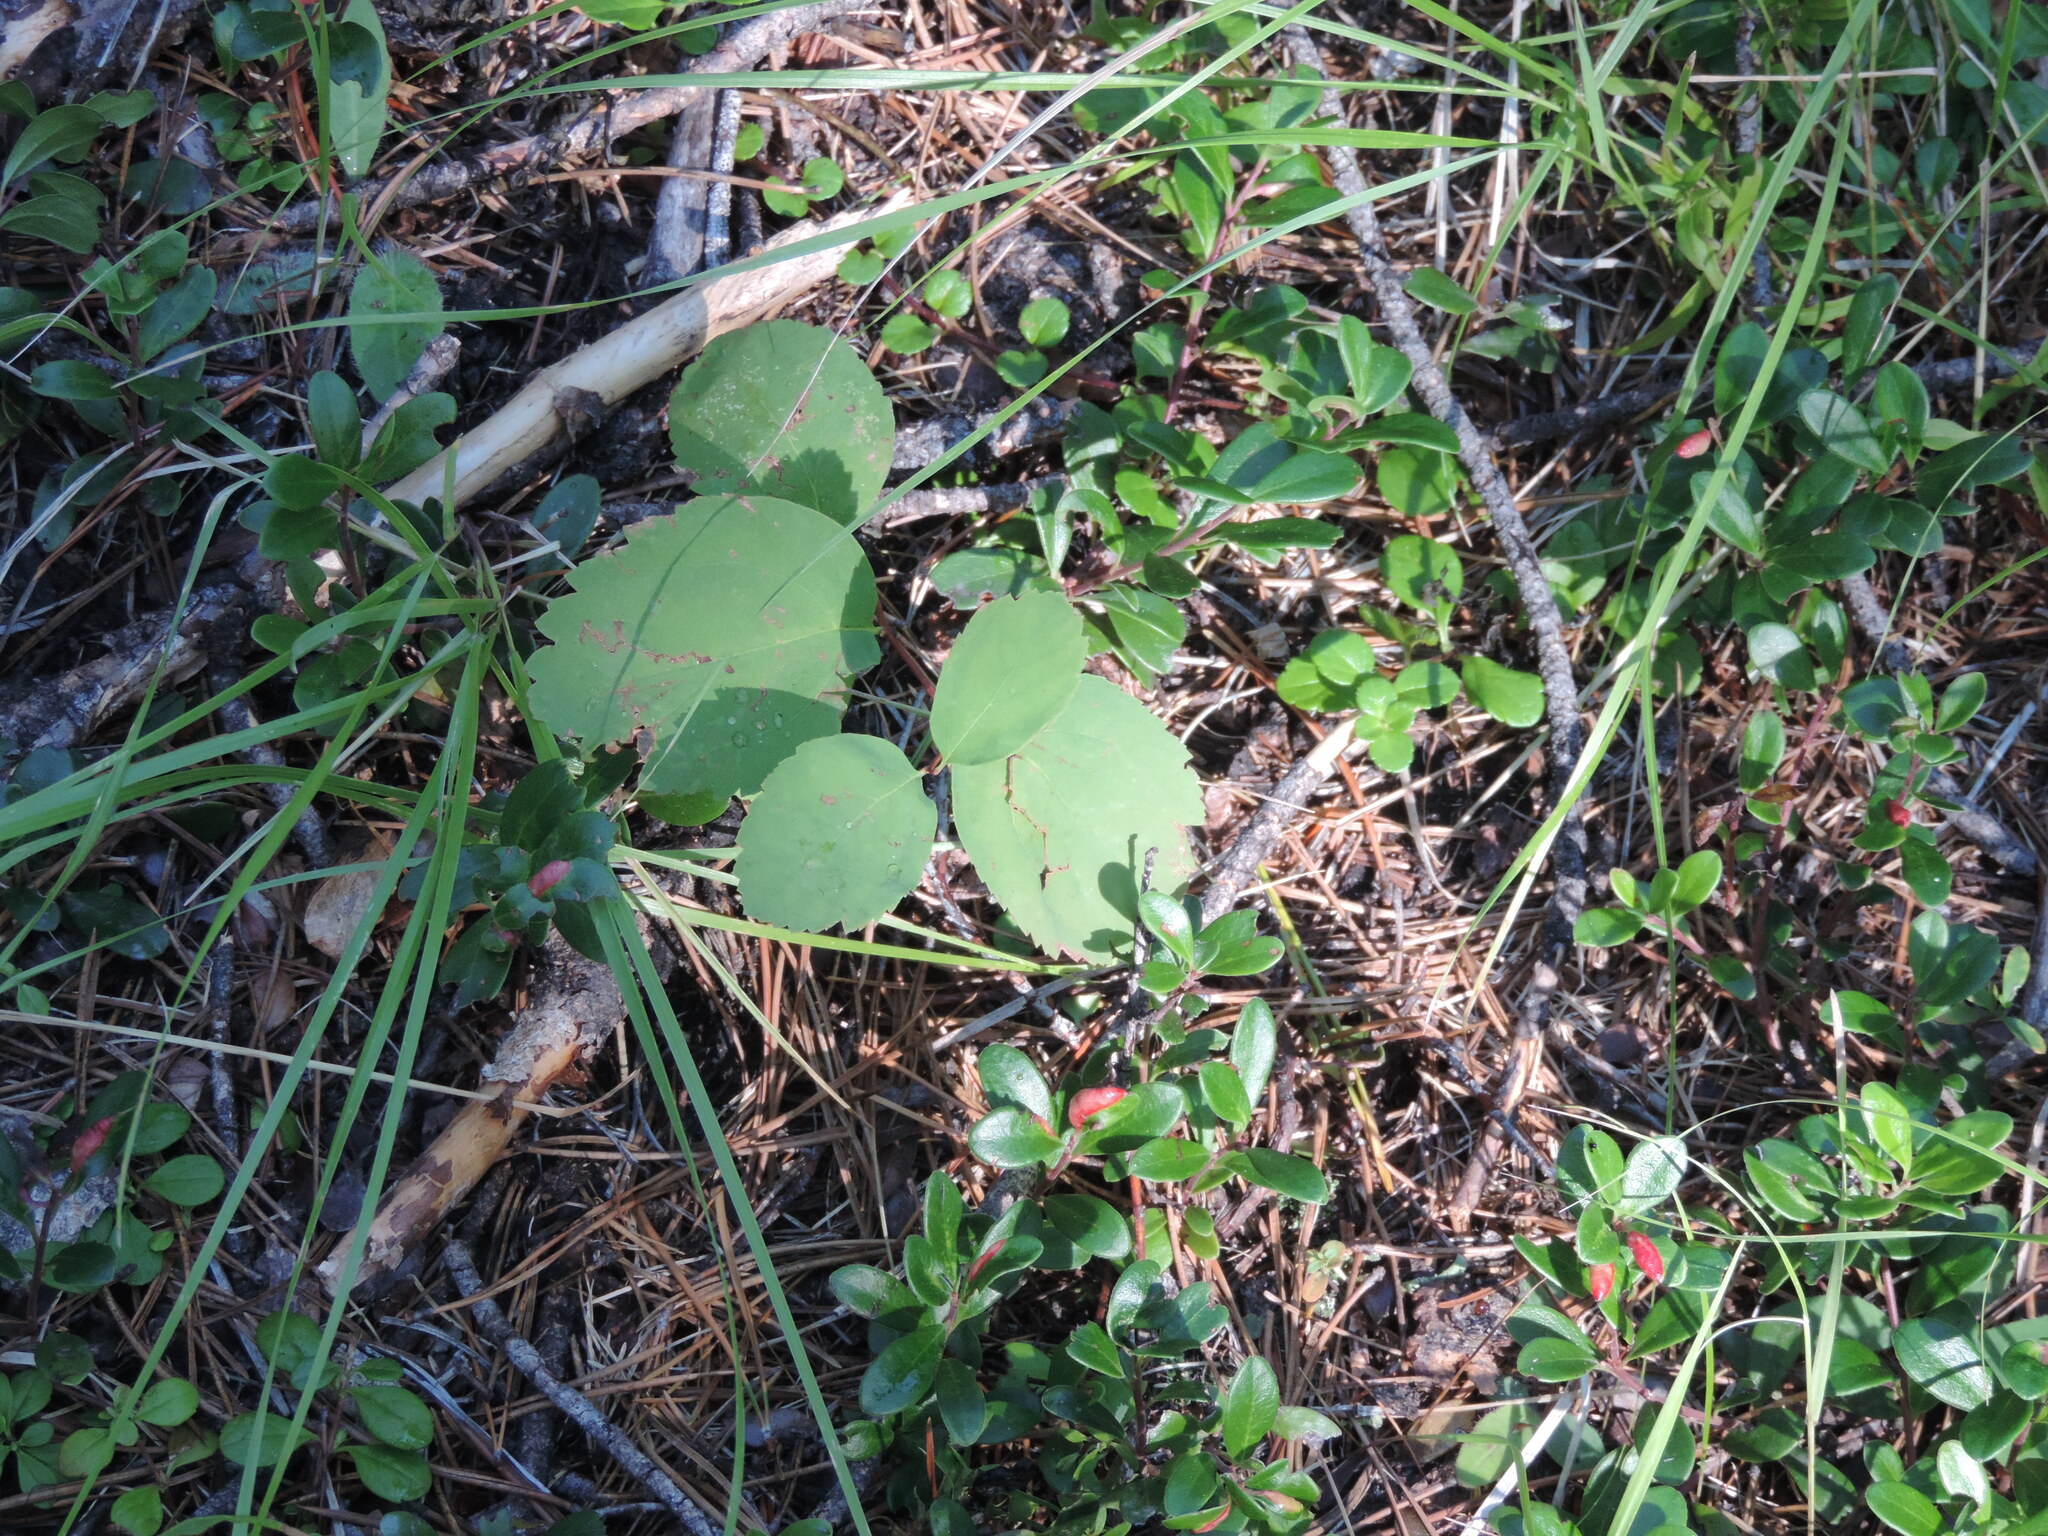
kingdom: Plantae
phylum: Tracheophyta
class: Magnoliopsida
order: Rosales
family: Rosaceae
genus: Spiraea
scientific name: Spiraea lucida
